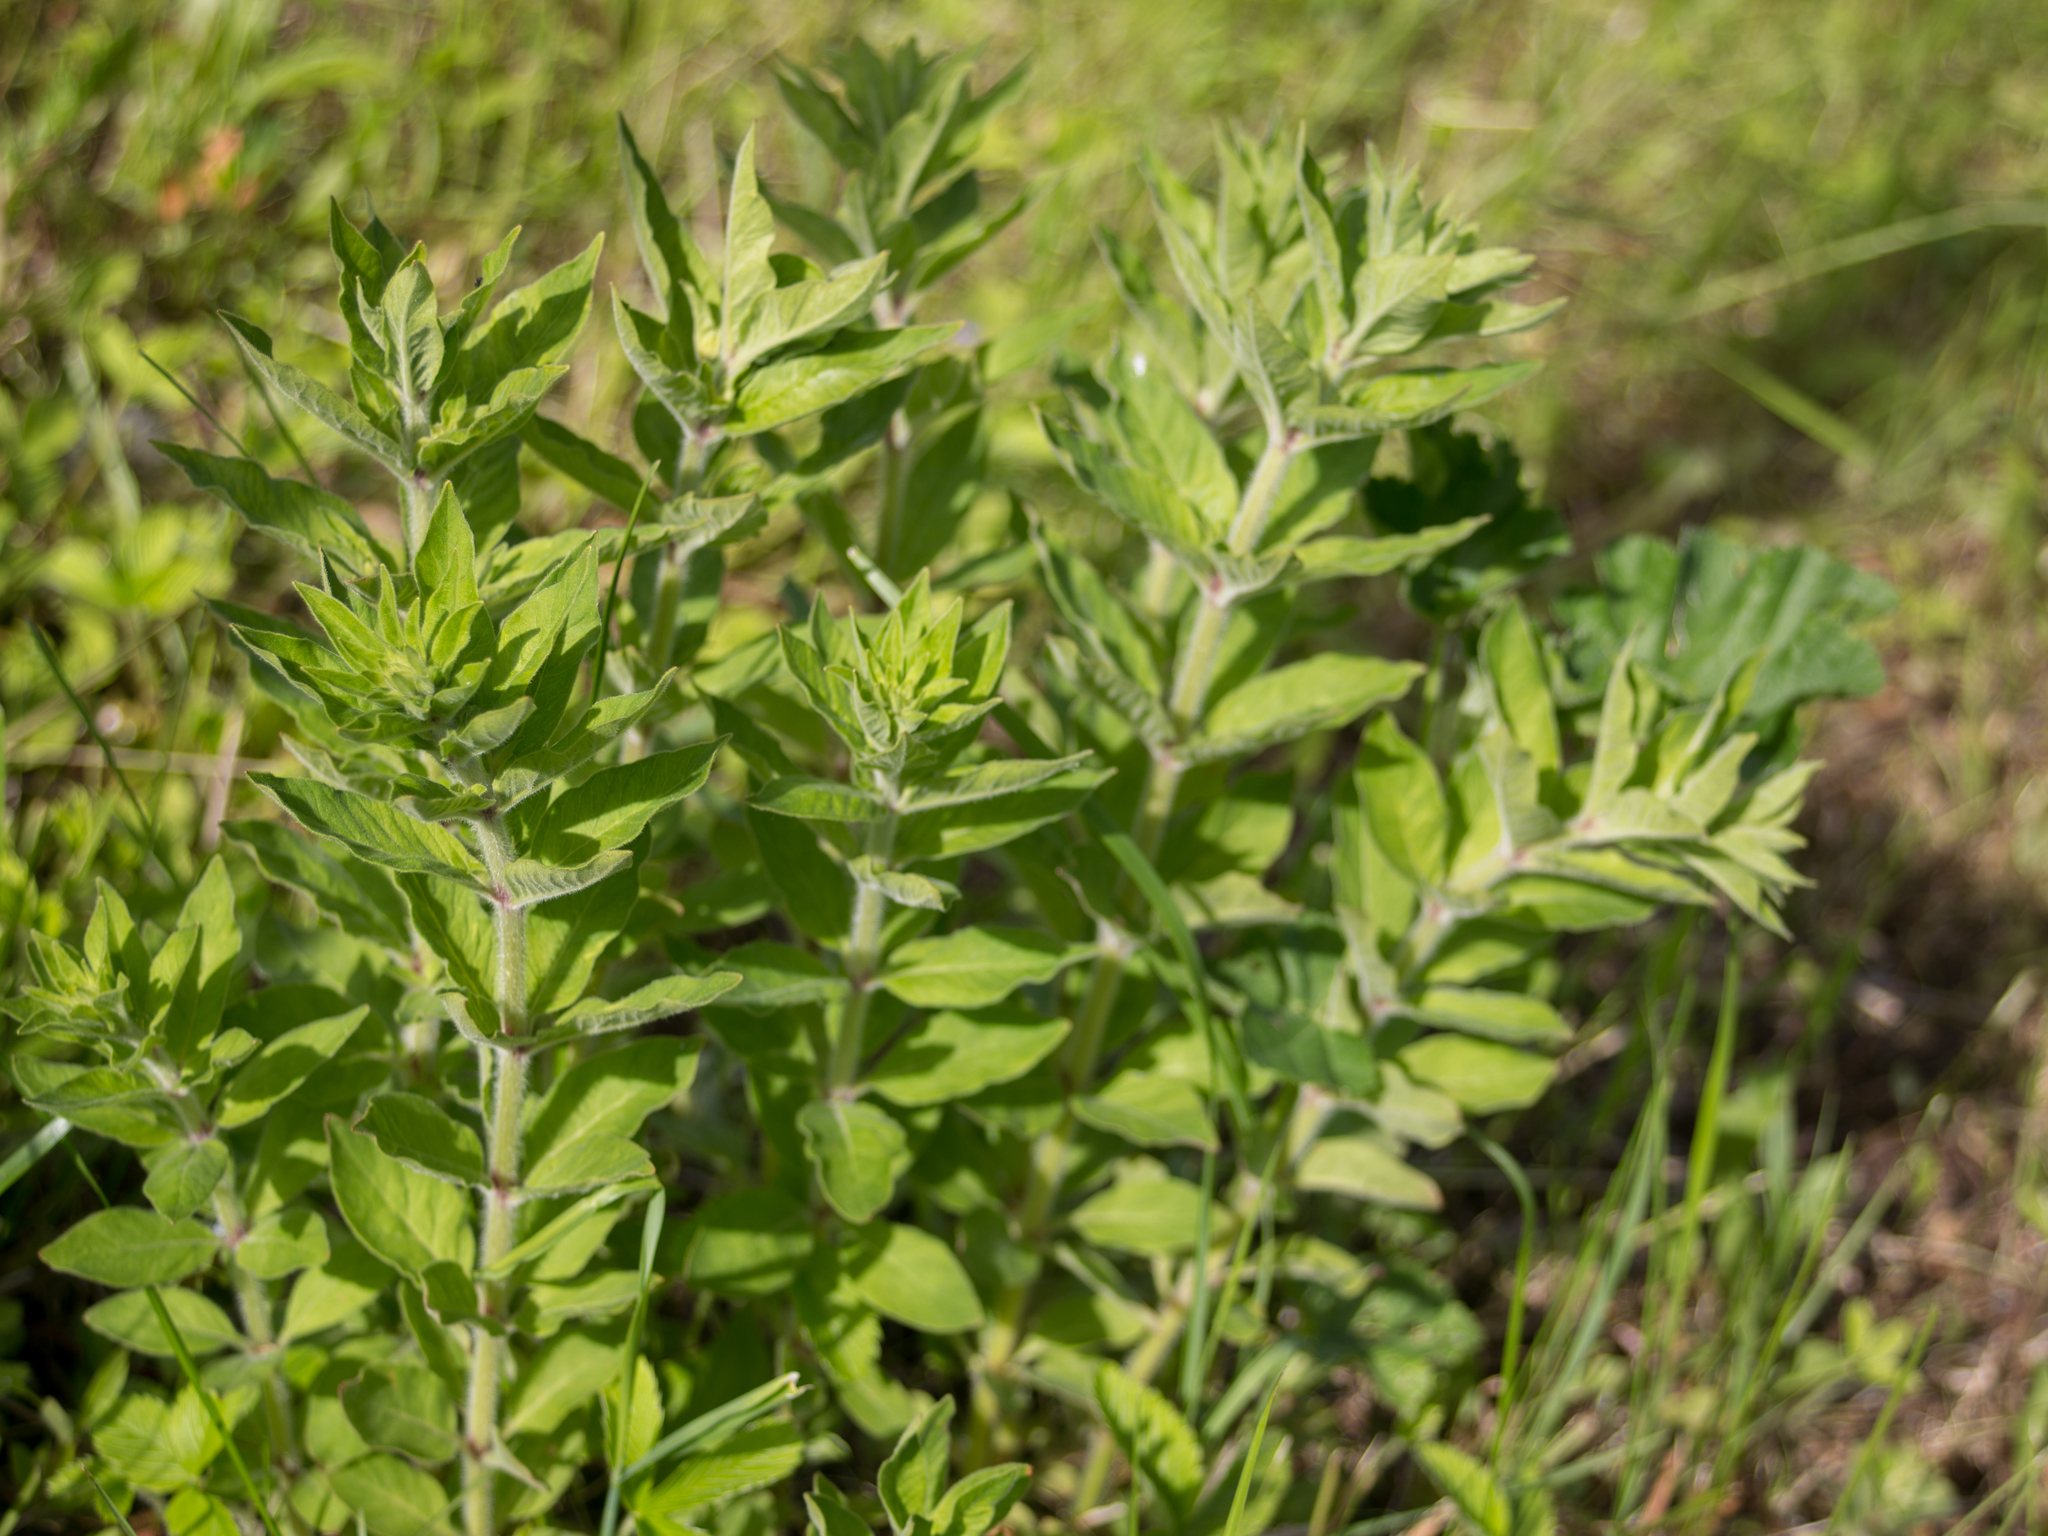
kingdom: Plantae
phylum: Tracheophyta
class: Magnoliopsida
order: Ericales
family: Primulaceae
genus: Lysimachia
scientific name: Lysimachia punctata
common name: Dotted loosestrife
